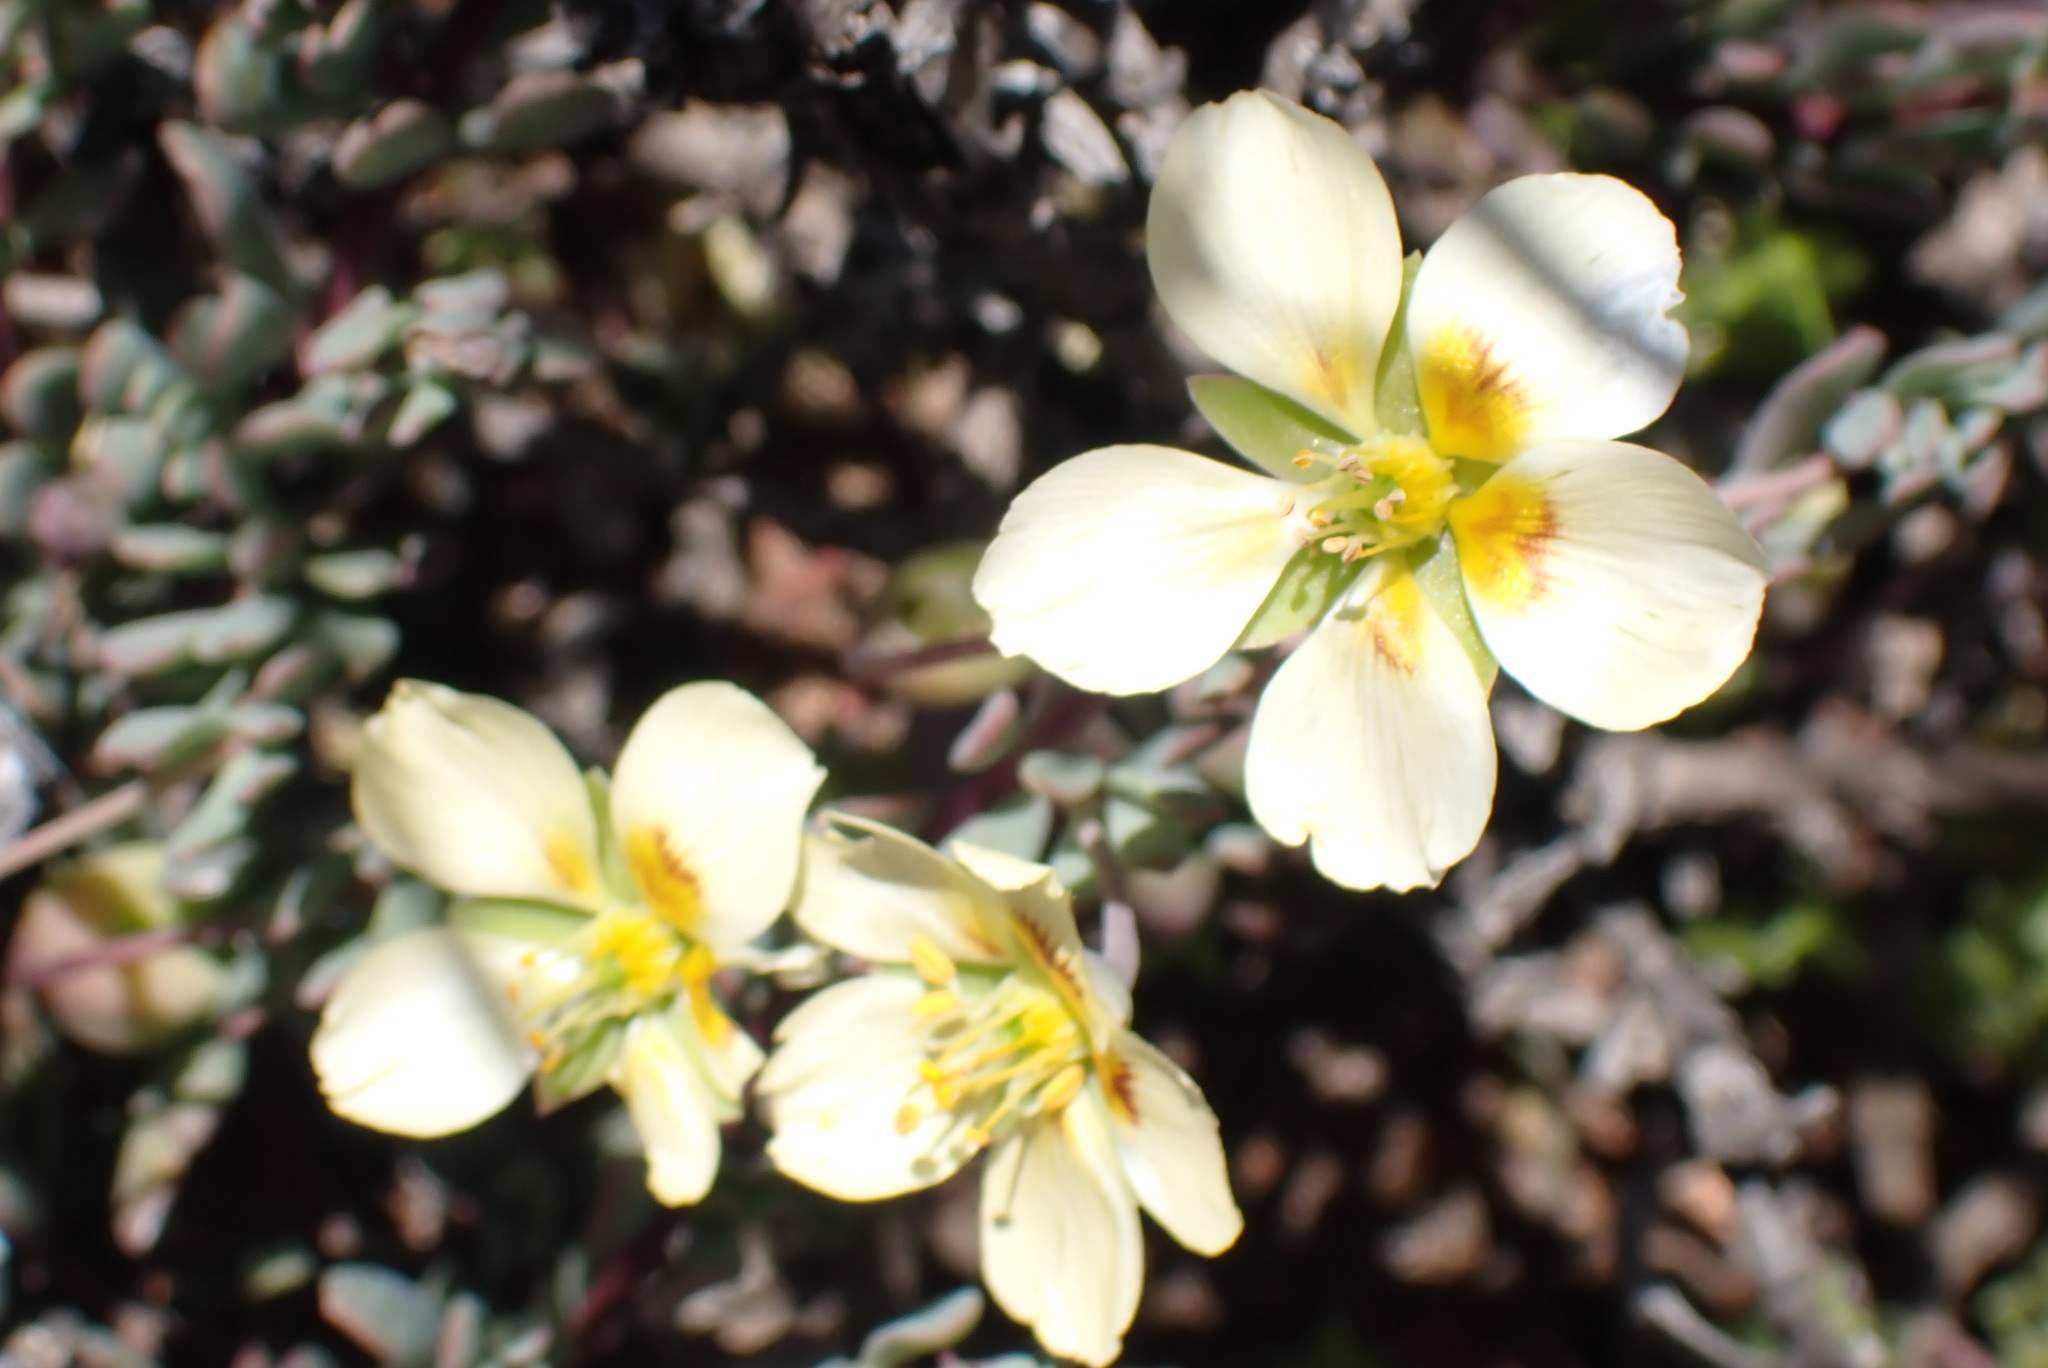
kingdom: Plantae
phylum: Tracheophyta
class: Magnoliopsida
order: Zygophyllales
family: Zygophyllaceae
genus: Roepera
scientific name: Roepera fulva
